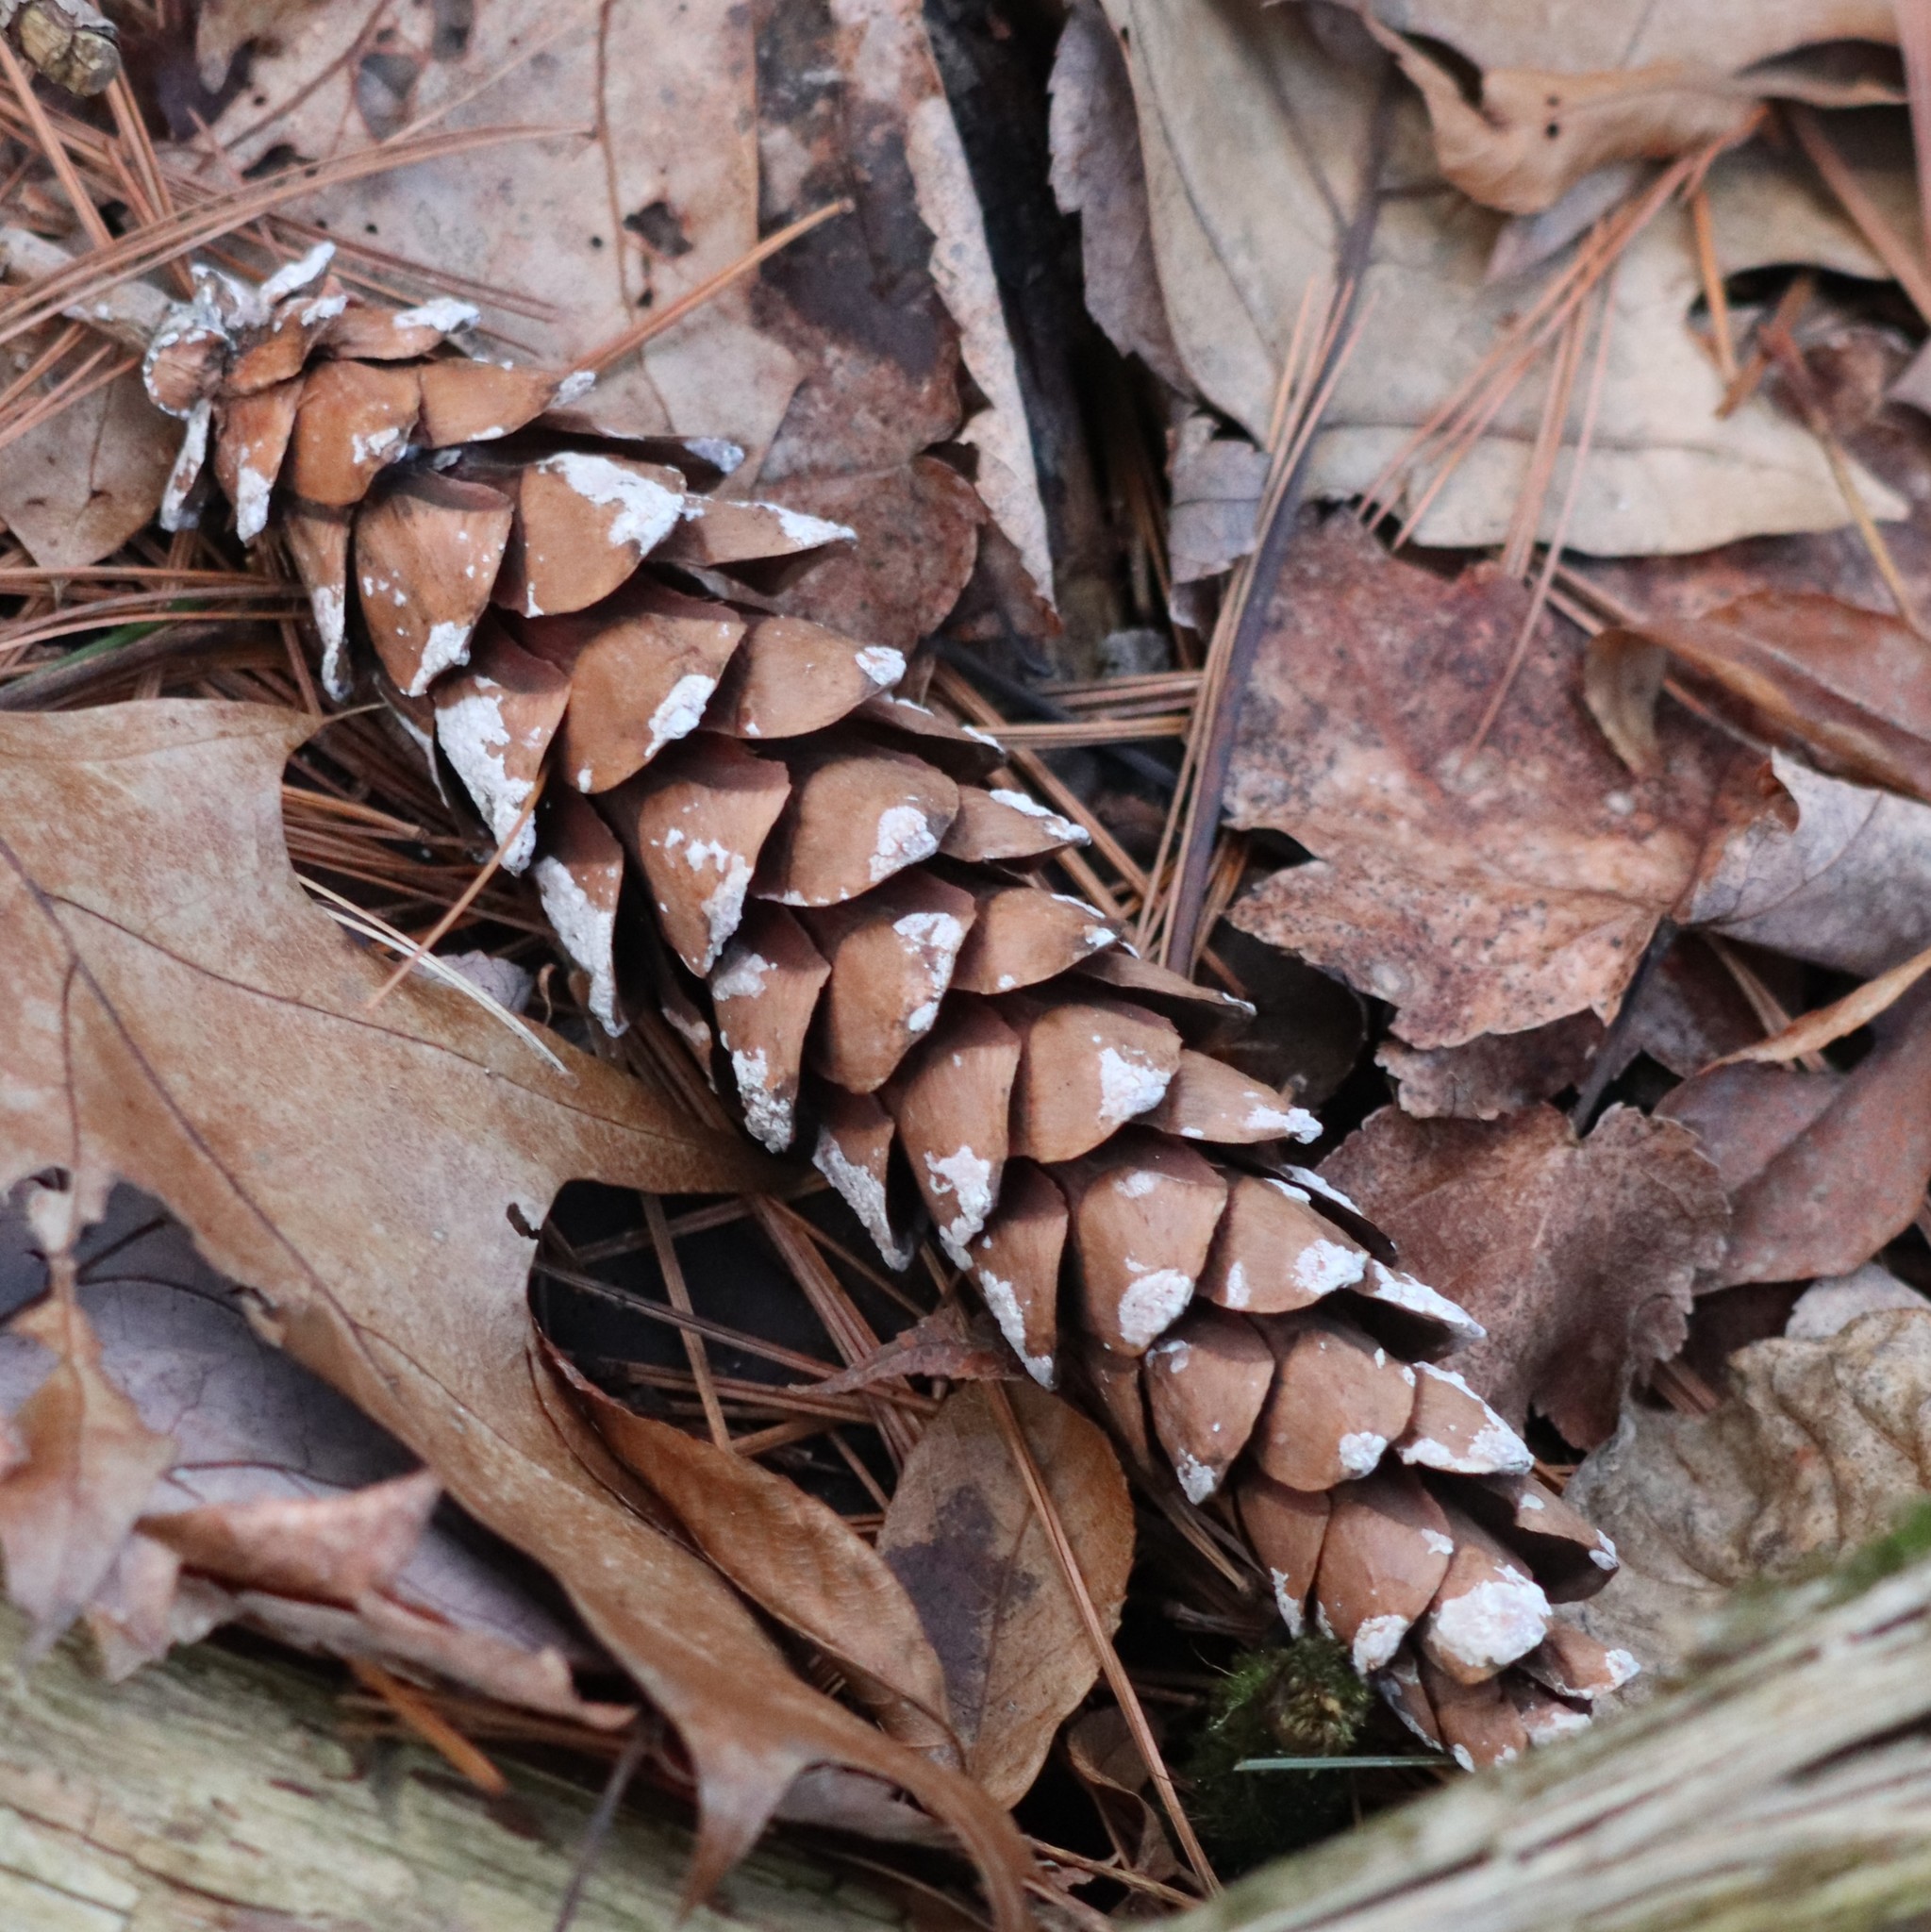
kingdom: Plantae
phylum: Tracheophyta
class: Pinopsida
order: Pinales
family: Pinaceae
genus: Pinus
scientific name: Pinus strobus
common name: Weymouth pine
